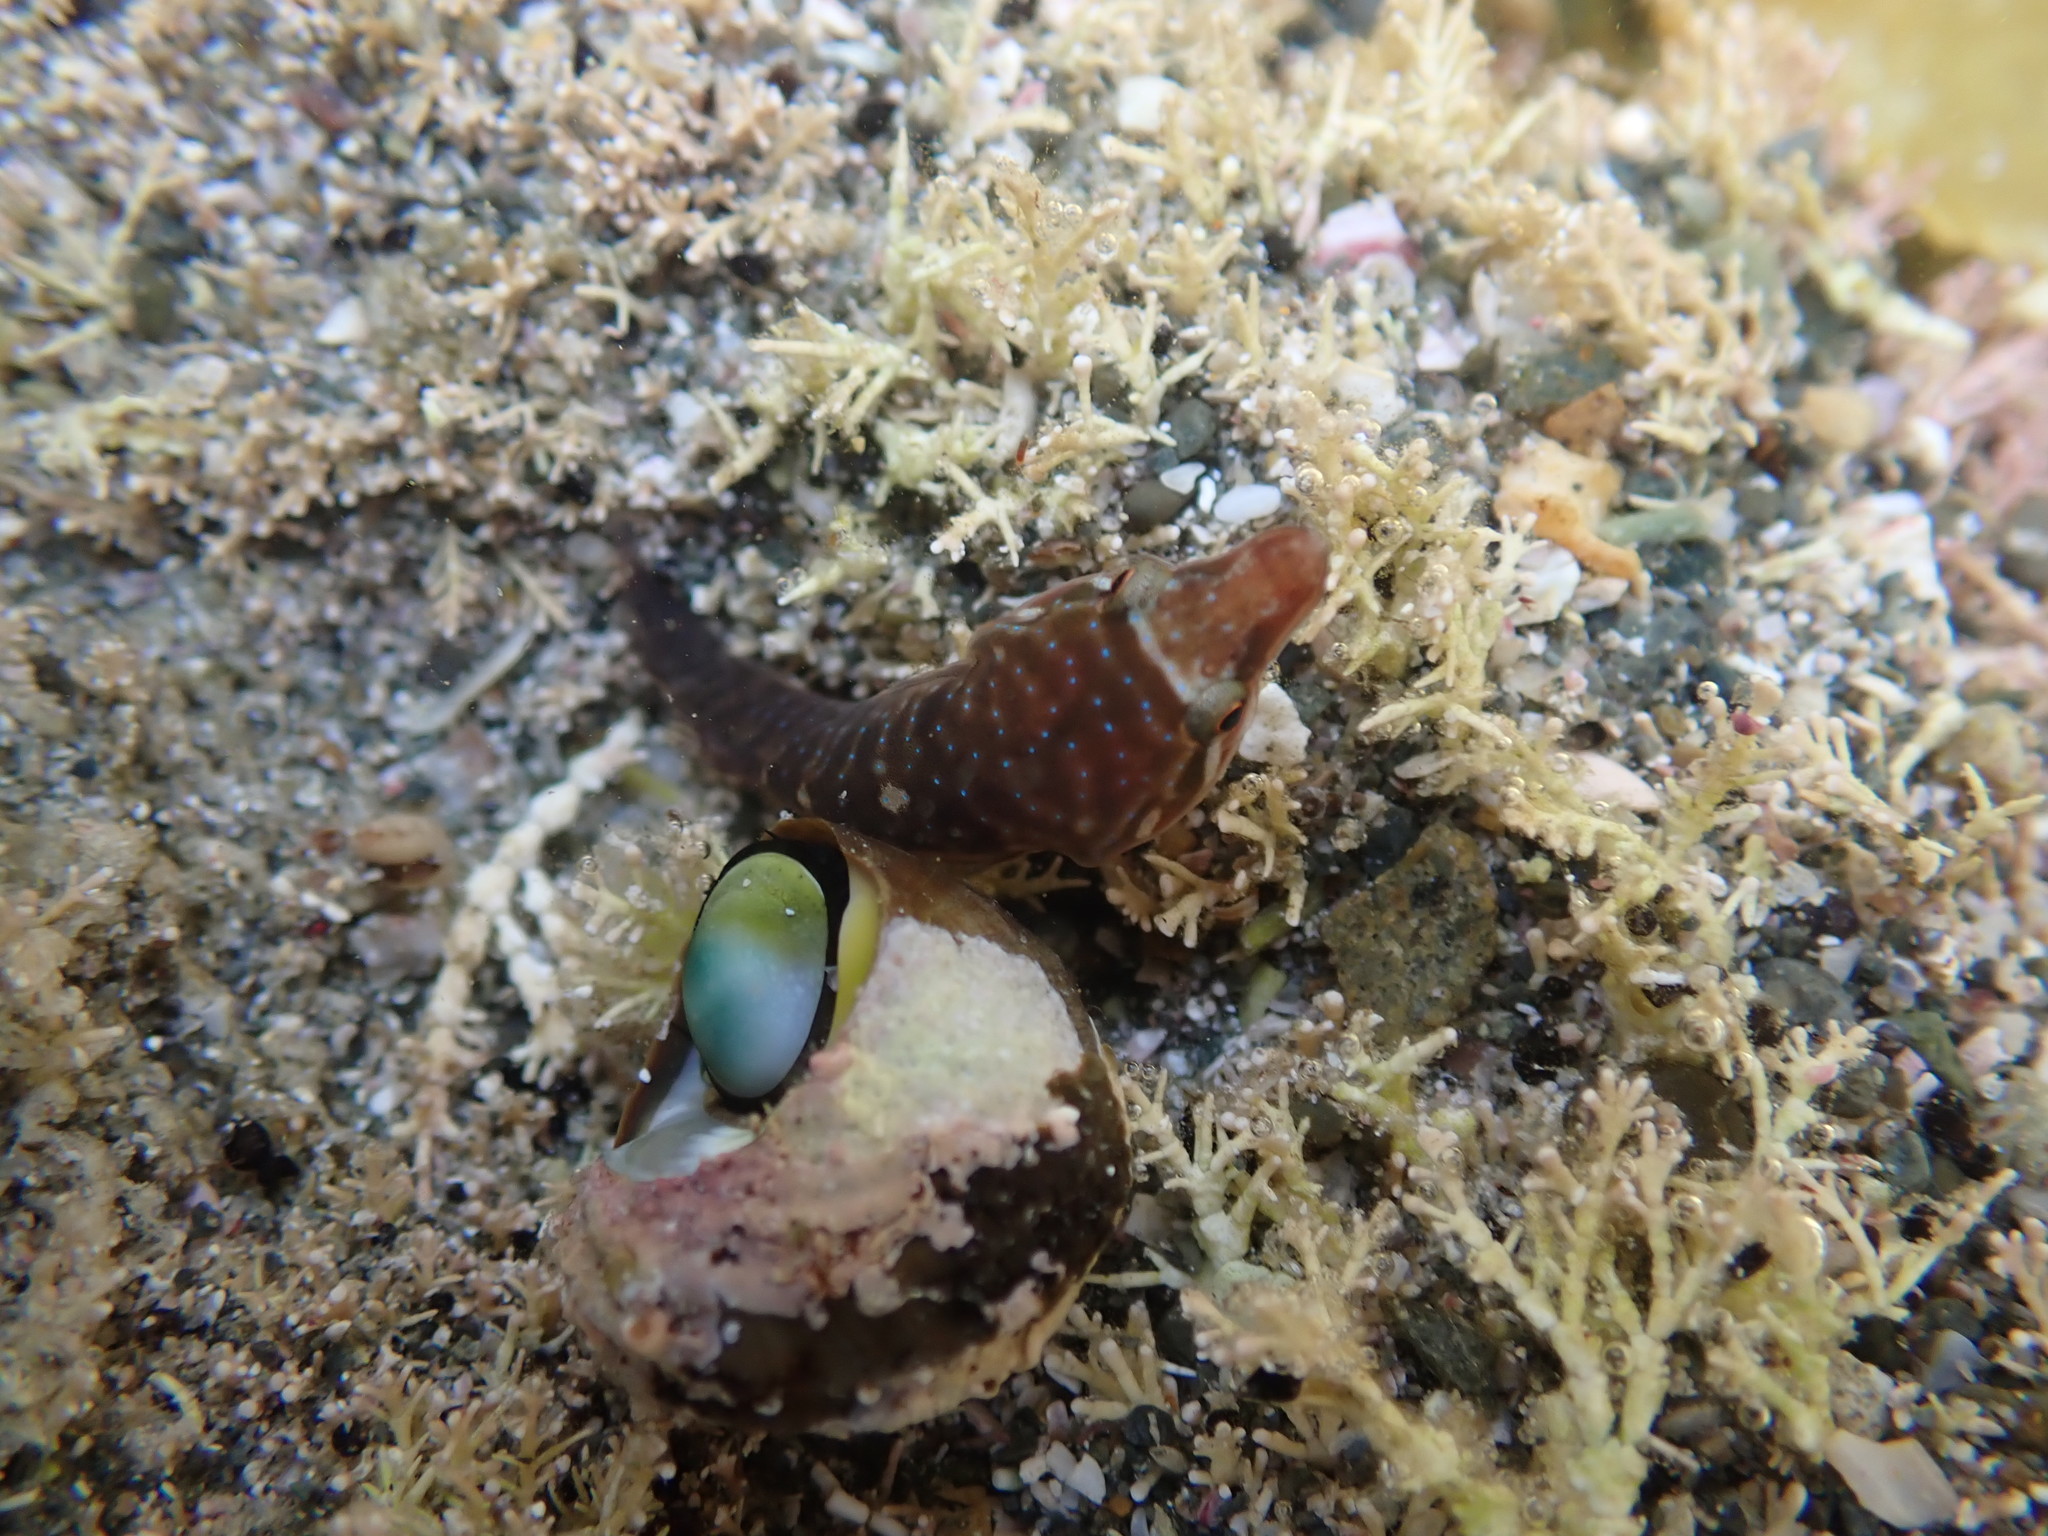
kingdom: Animalia
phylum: Chordata
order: Gobiesociformes
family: Gobiesocidae
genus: Dellichthys
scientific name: Dellichthys morelandi
